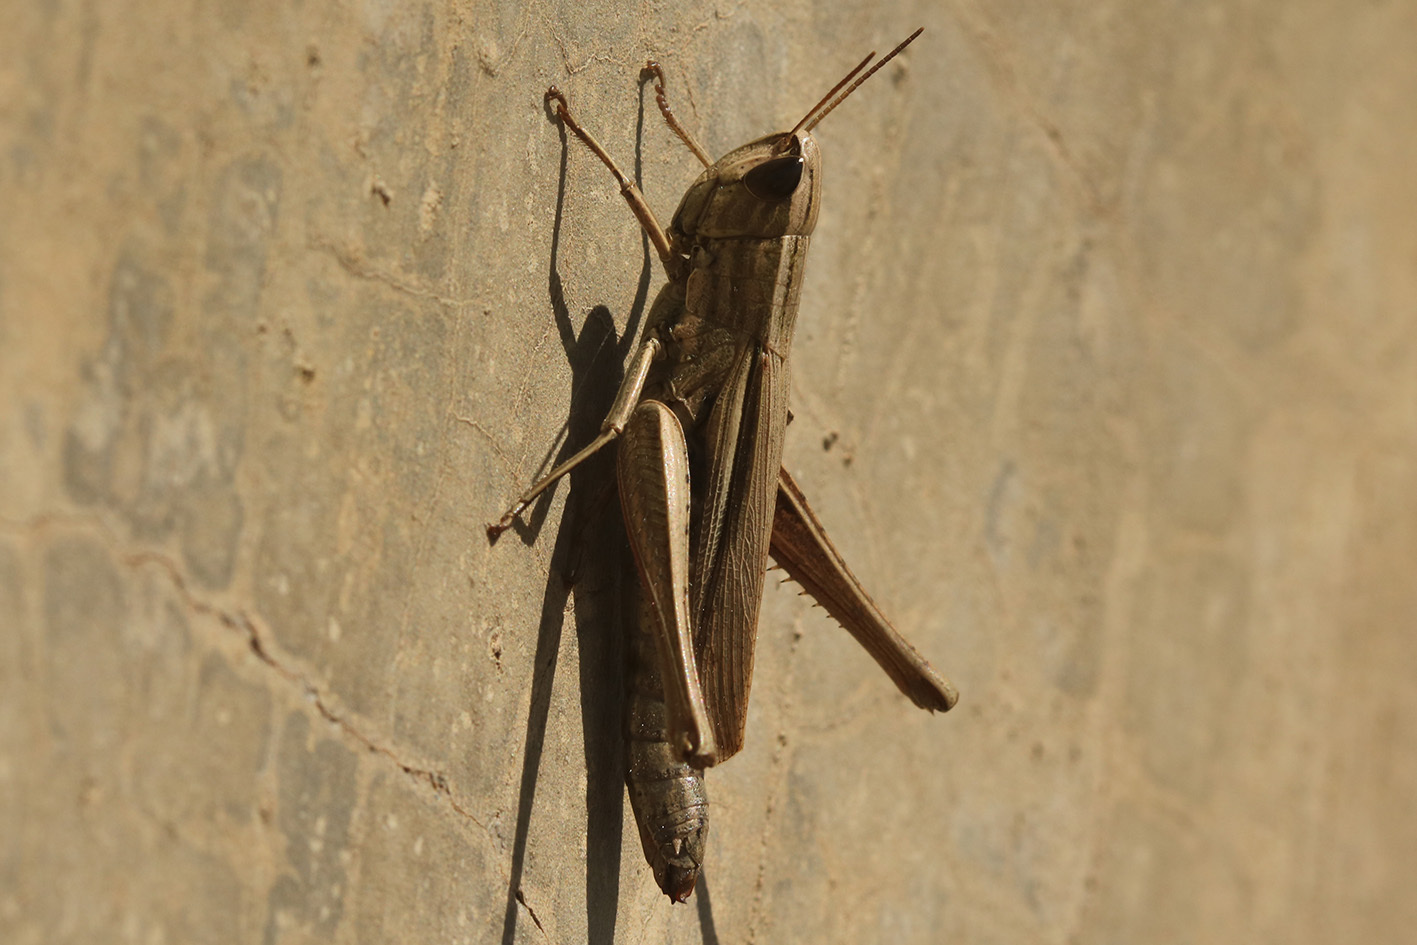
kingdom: Animalia
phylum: Arthropoda
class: Insecta
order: Orthoptera
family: Acrididae
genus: Amblytropidia
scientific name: Amblytropidia australis
